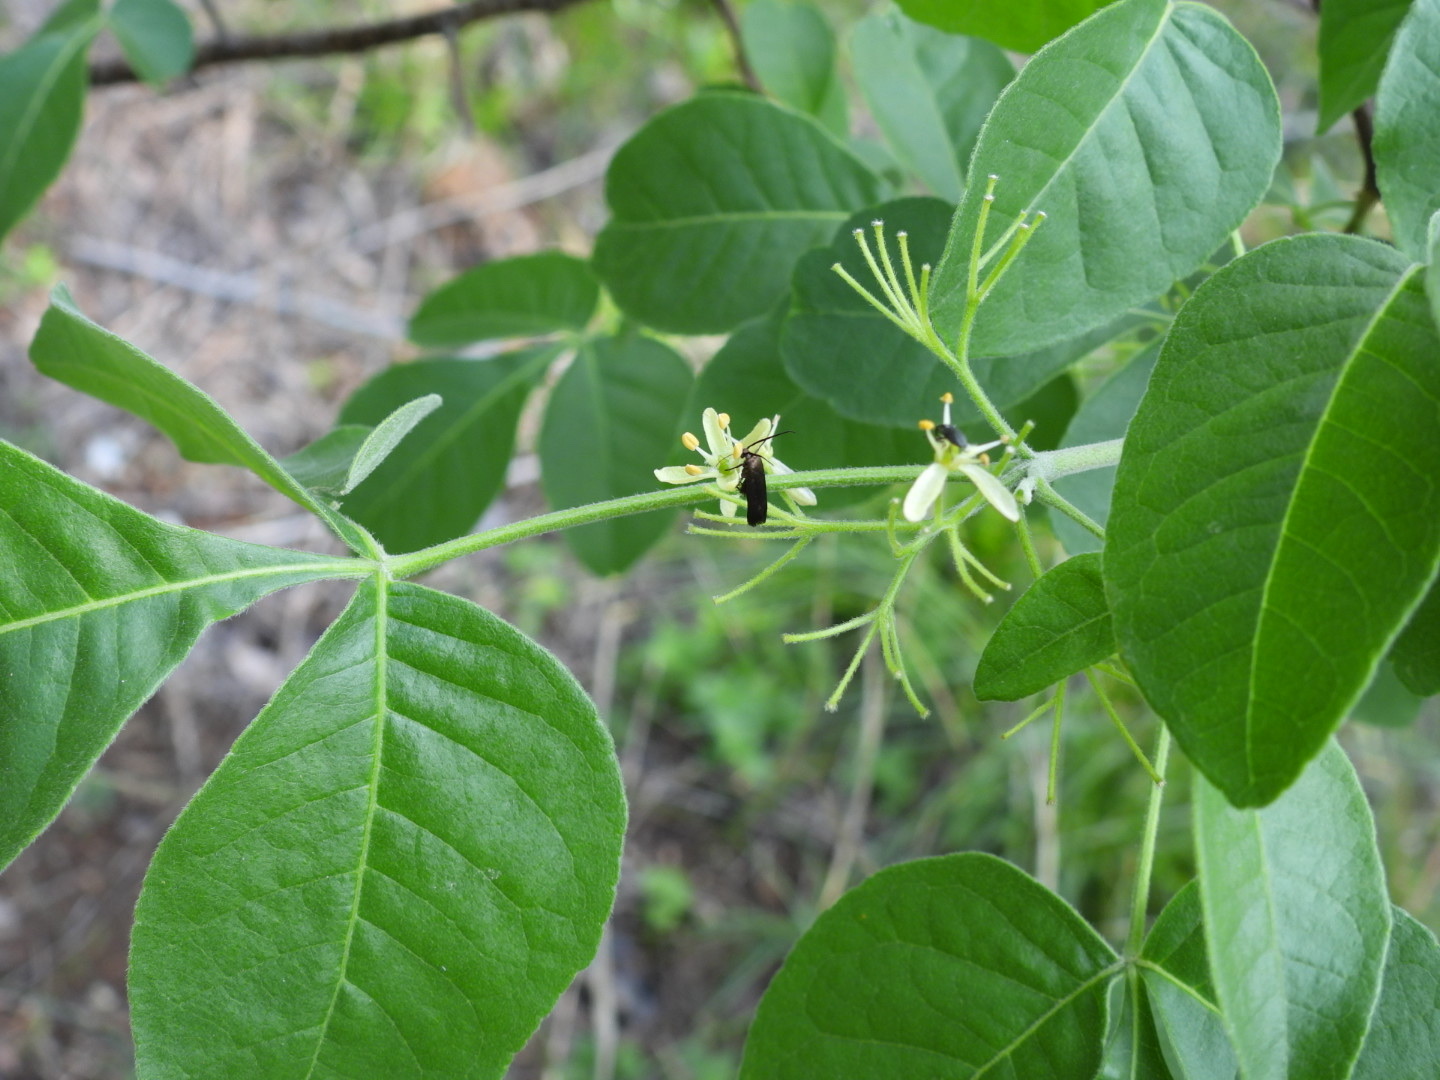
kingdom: Plantae
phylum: Tracheophyta
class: Magnoliopsida
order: Sapindales
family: Rutaceae
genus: Ptelea
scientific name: Ptelea trifoliata
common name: Common hop-tree
